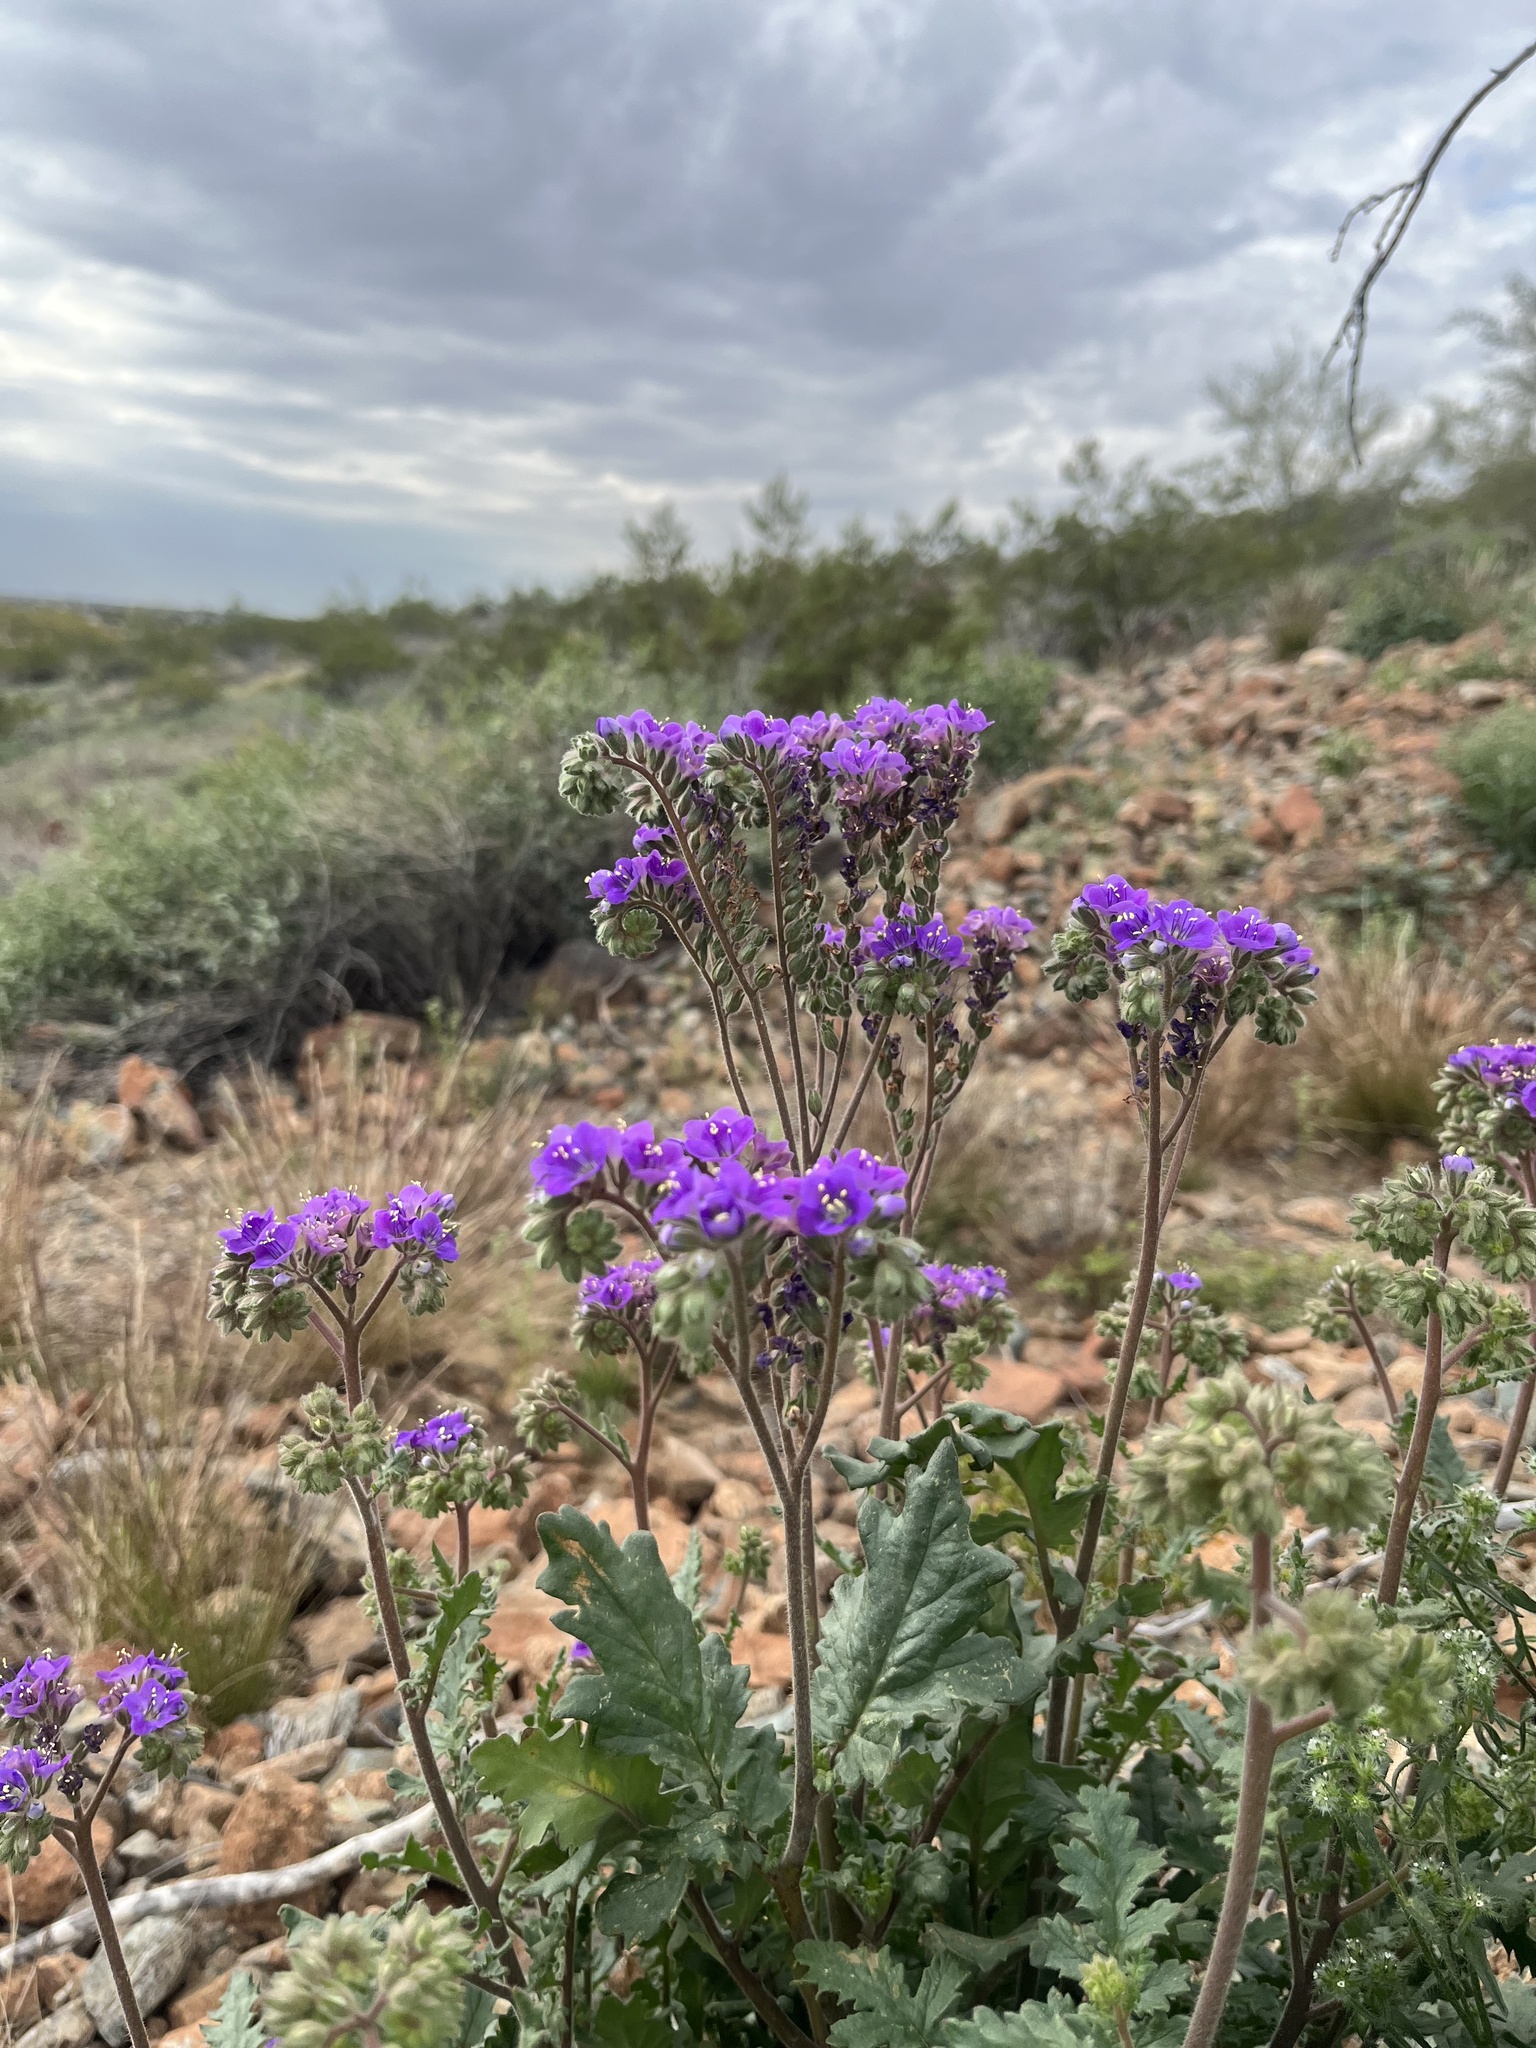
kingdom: Plantae
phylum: Tracheophyta
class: Magnoliopsida
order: Boraginales
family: Hydrophyllaceae
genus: Phacelia
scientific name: Phacelia crenulata
